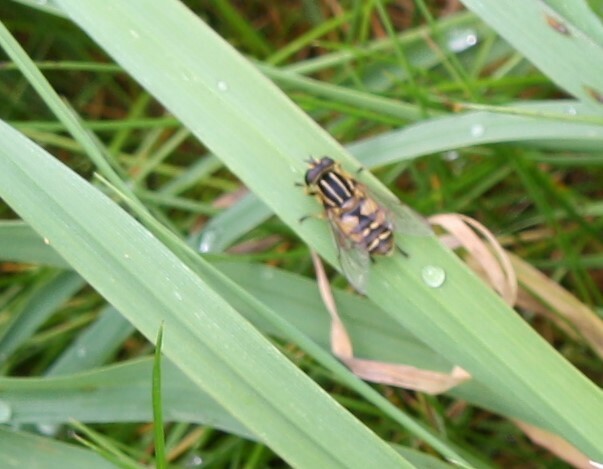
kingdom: Animalia
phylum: Arthropoda
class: Insecta
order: Diptera
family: Syrphidae
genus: Helophilus
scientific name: Helophilus pendulus
